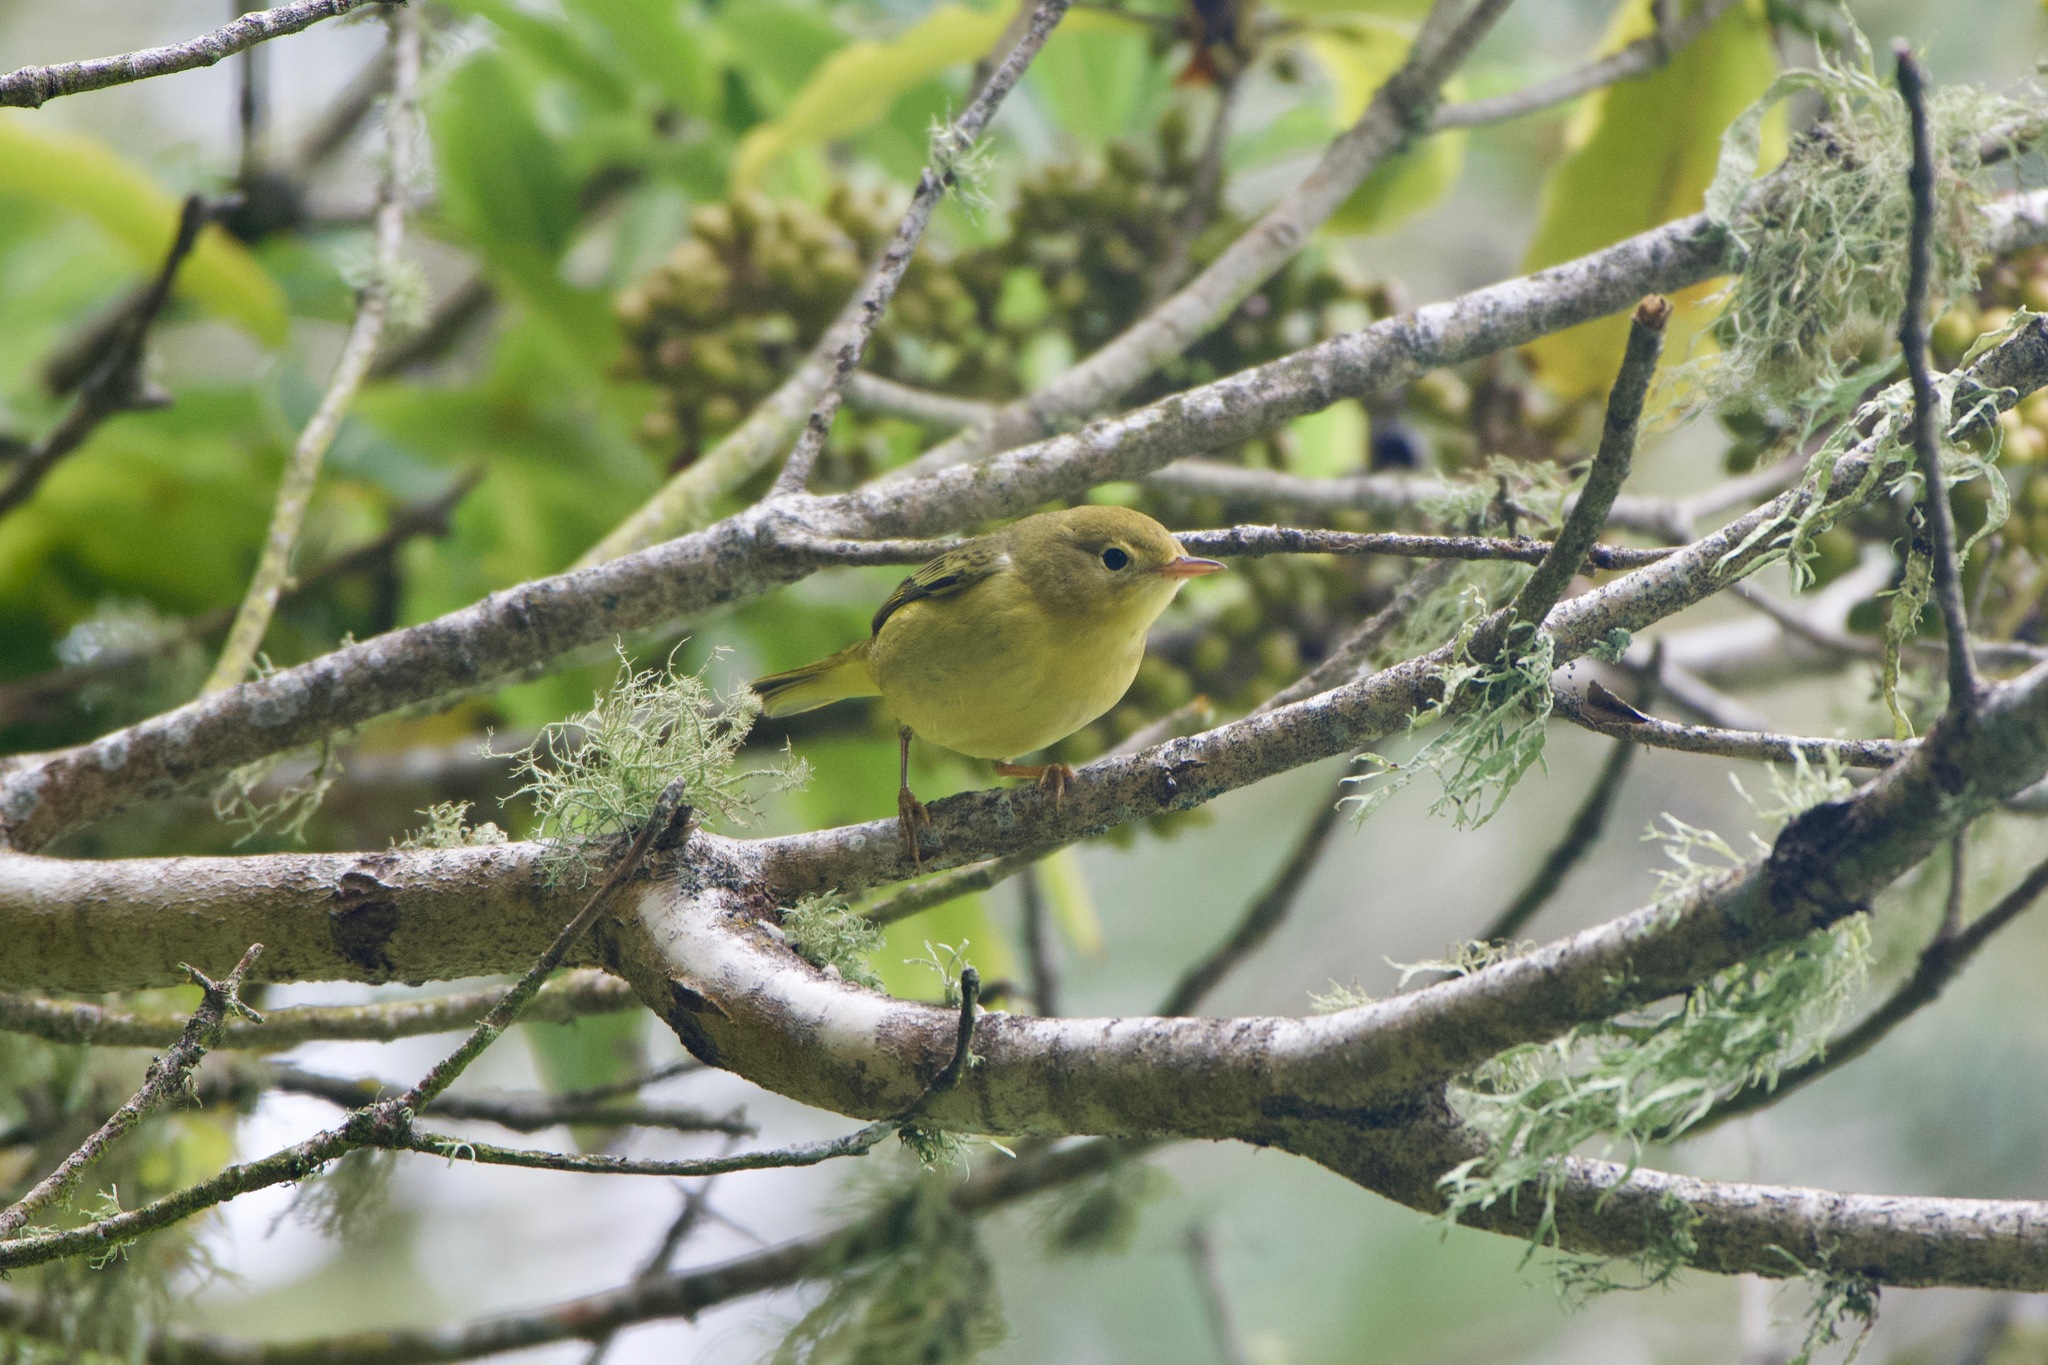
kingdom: Animalia
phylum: Chordata
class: Aves
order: Passeriformes
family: Parulidae
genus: Setophaga
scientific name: Setophaga petechia
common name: Yellow warbler
